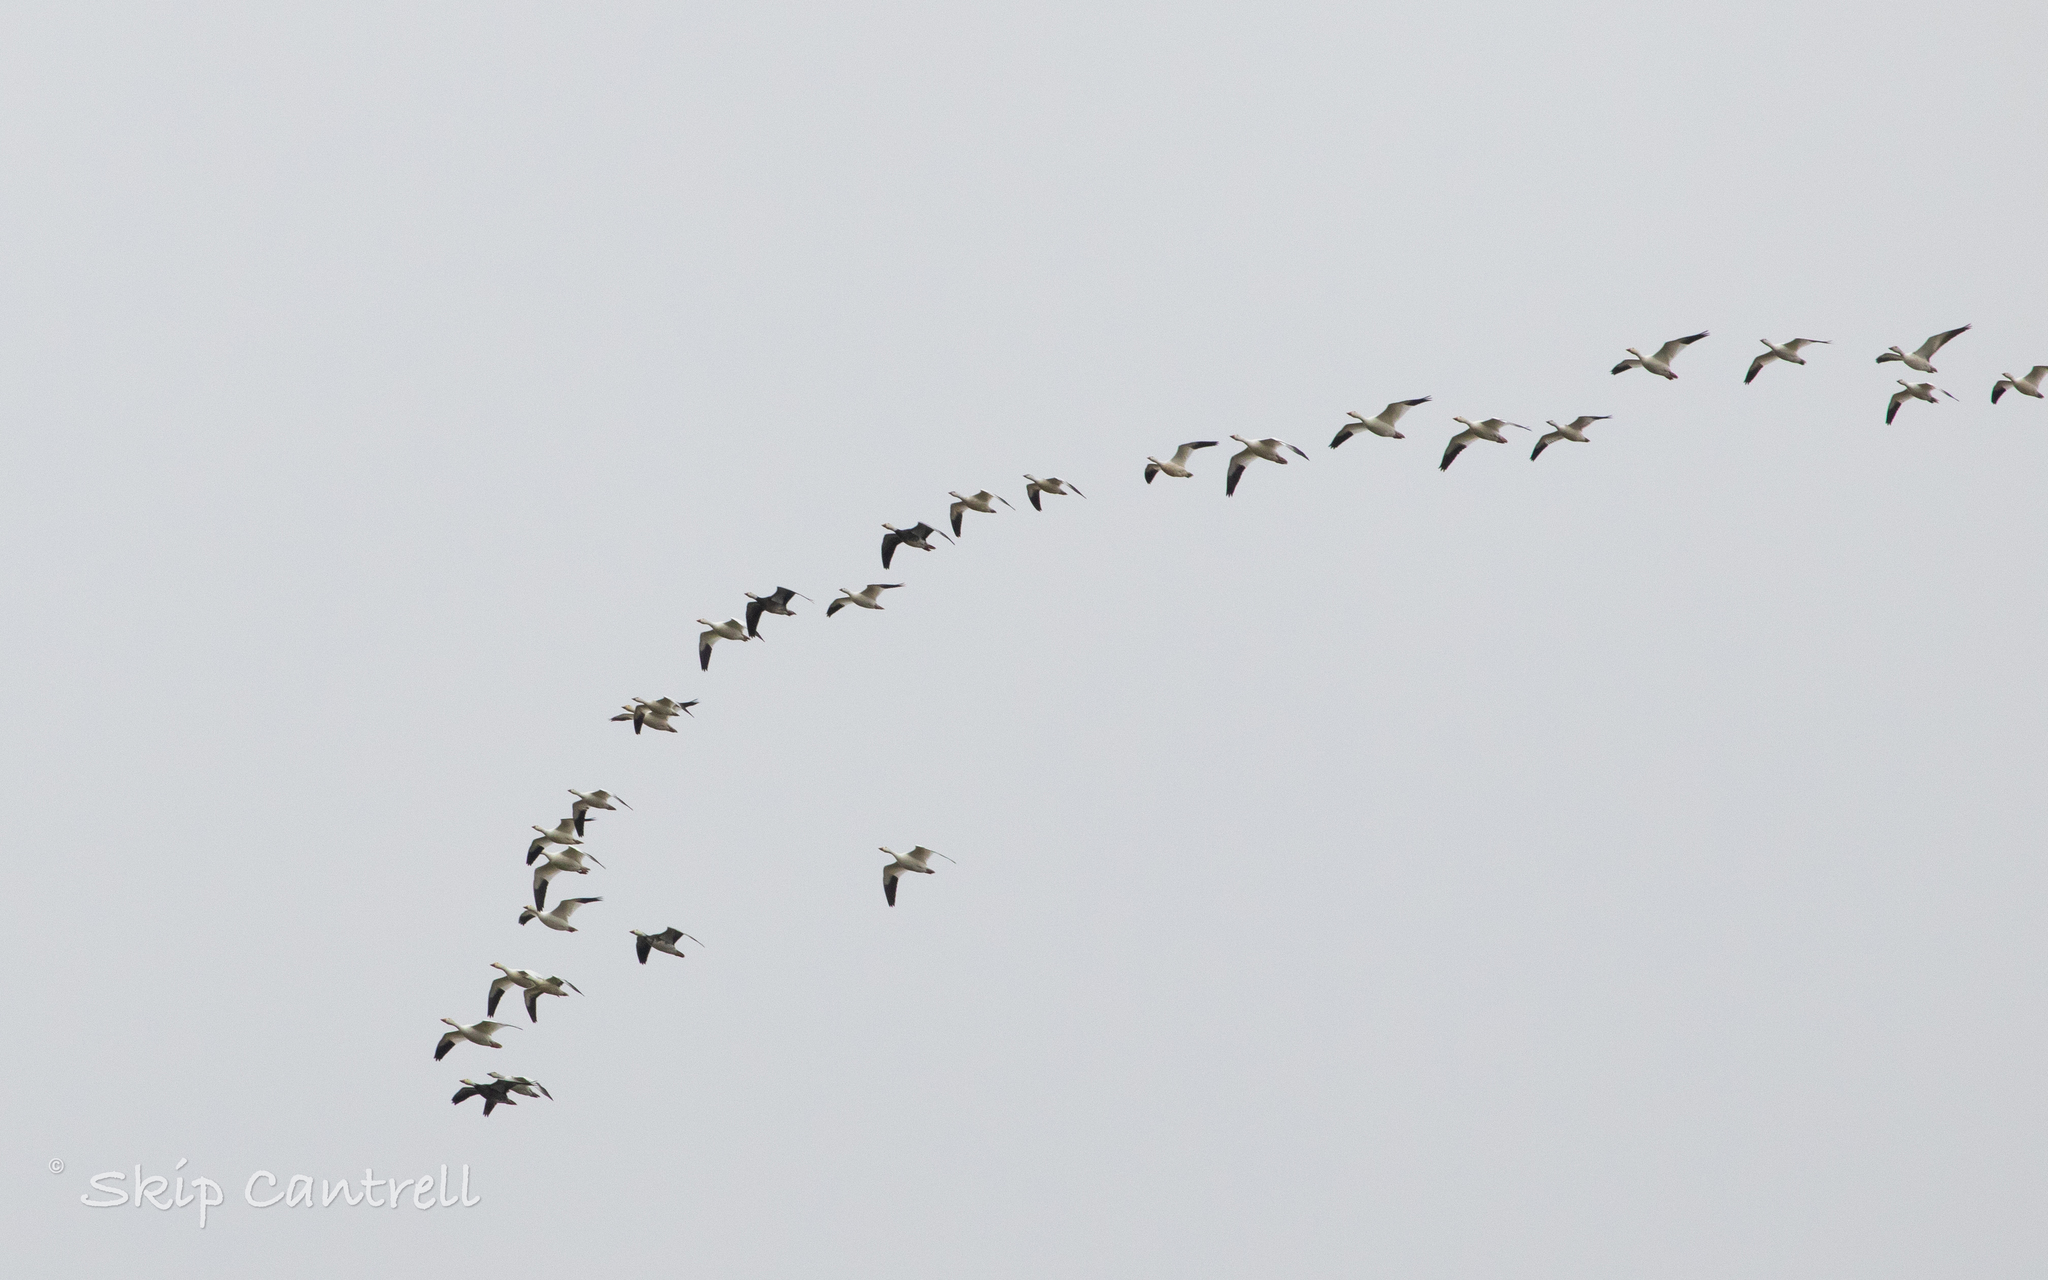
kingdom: Animalia
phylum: Chordata
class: Aves
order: Anseriformes
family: Anatidae
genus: Anser
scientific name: Anser caerulescens
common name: Snow goose
